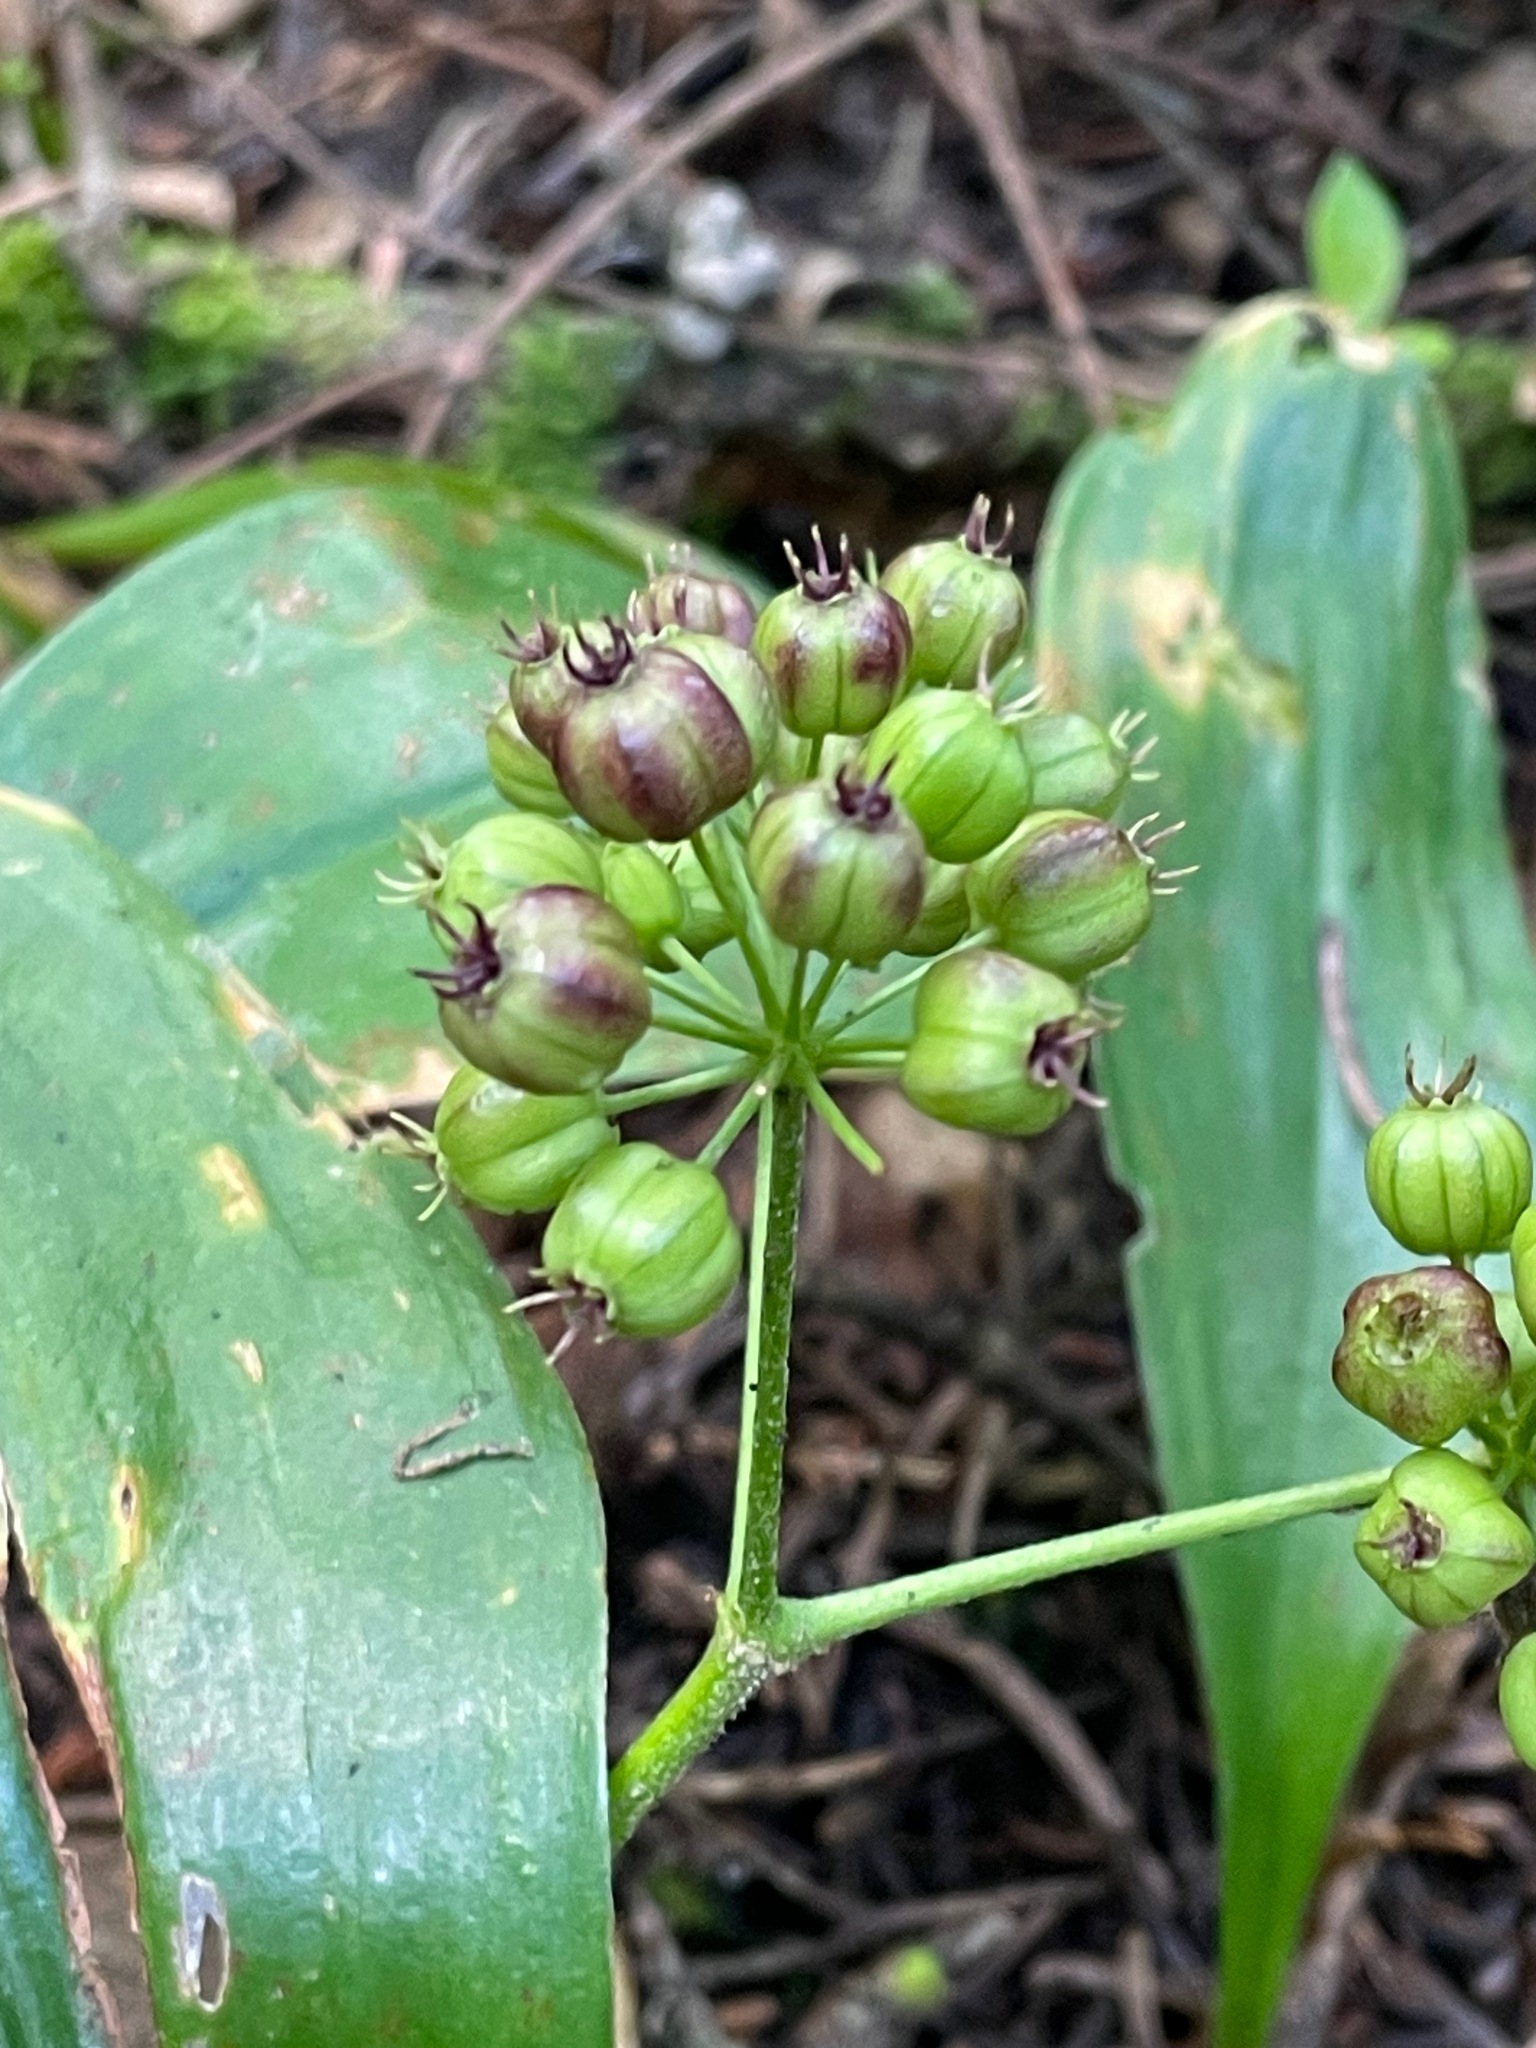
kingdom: Plantae
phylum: Tracheophyta
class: Magnoliopsida
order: Apiales
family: Araliaceae
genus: Aralia
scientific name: Aralia nudicaulis
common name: Wild sarsaparilla
